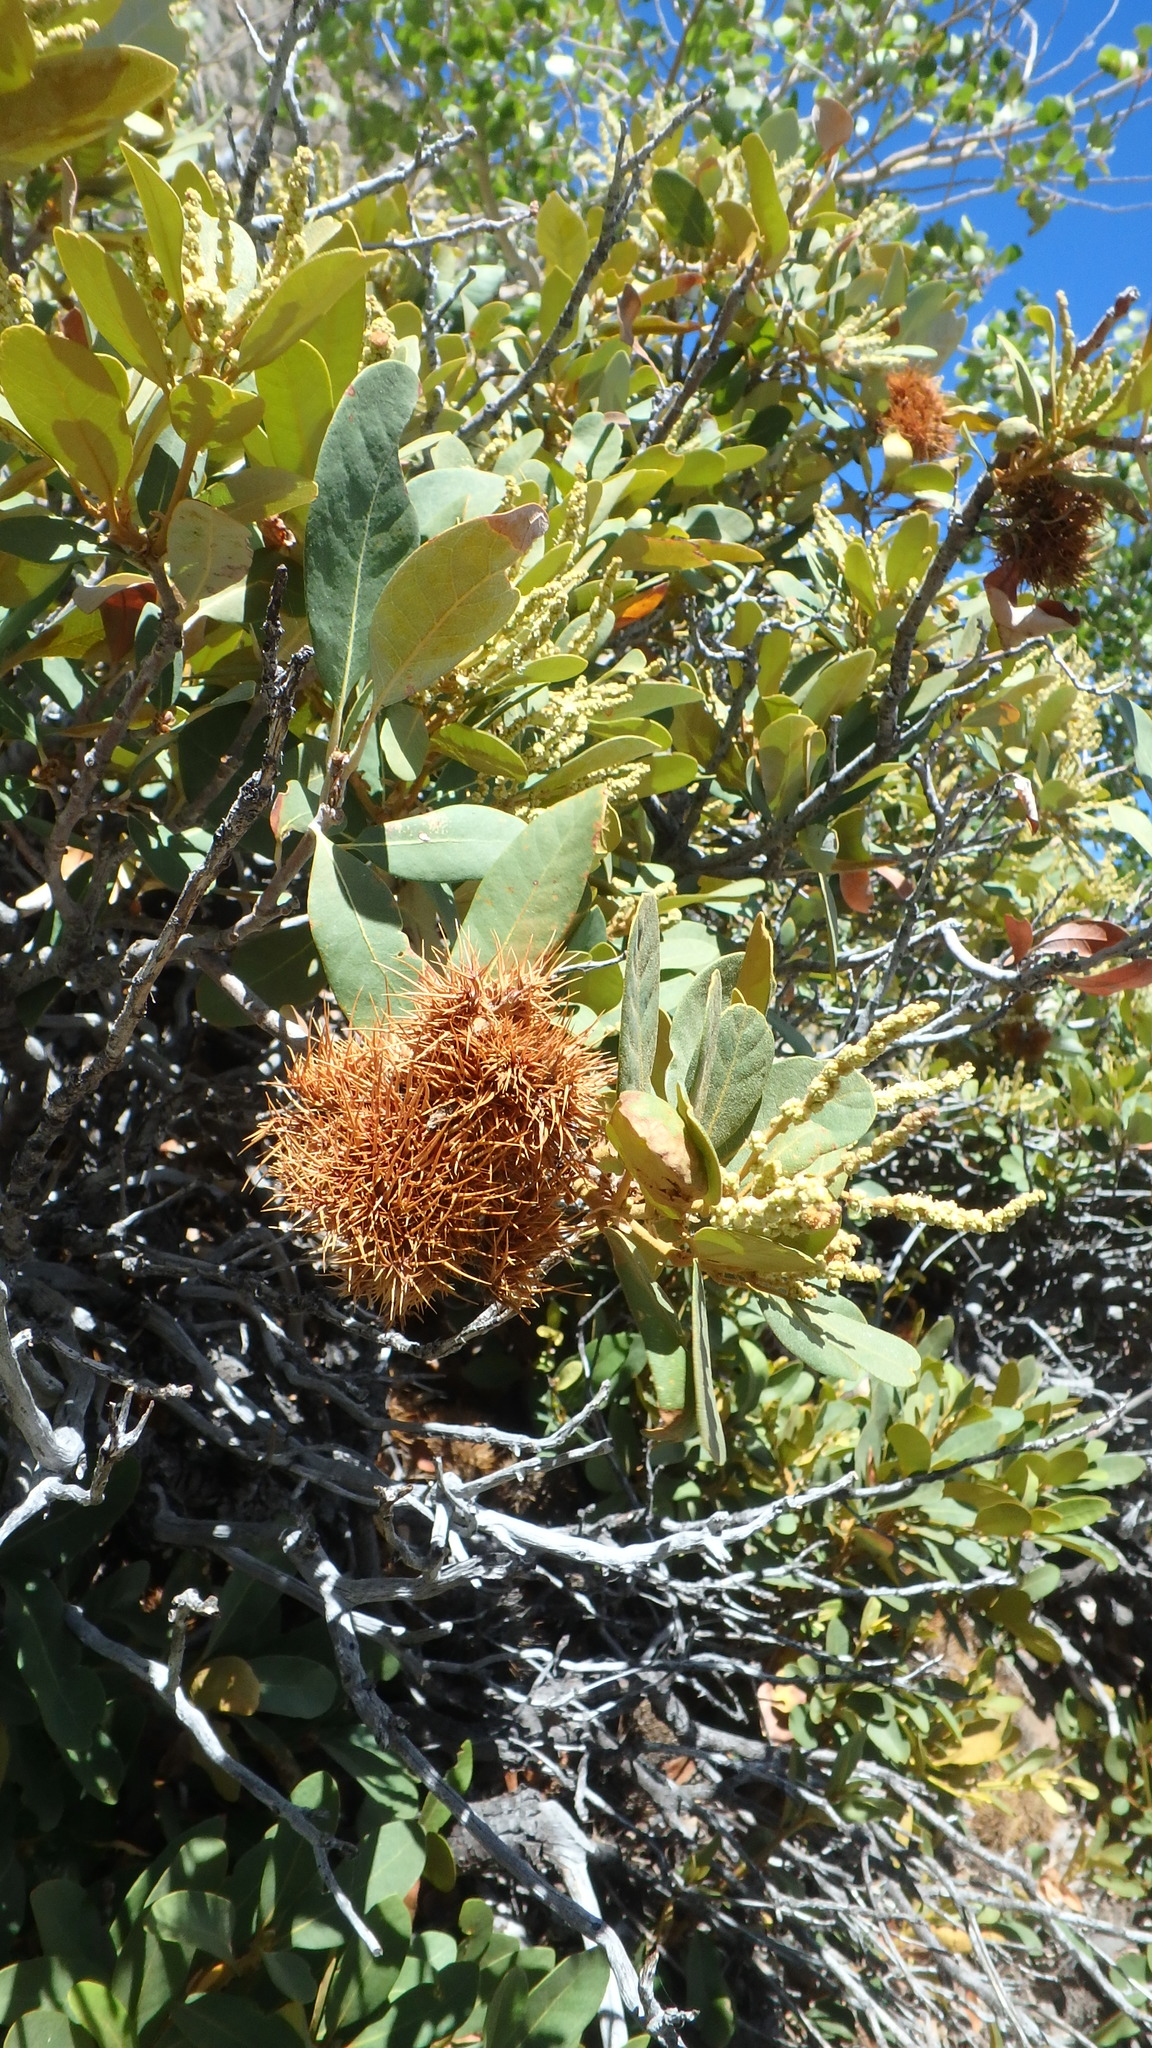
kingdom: Plantae
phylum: Tracheophyta
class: Magnoliopsida
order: Fagales
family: Fagaceae
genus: Chrysolepis
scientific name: Chrysolepis sempervirens
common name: Bush chinquapin
